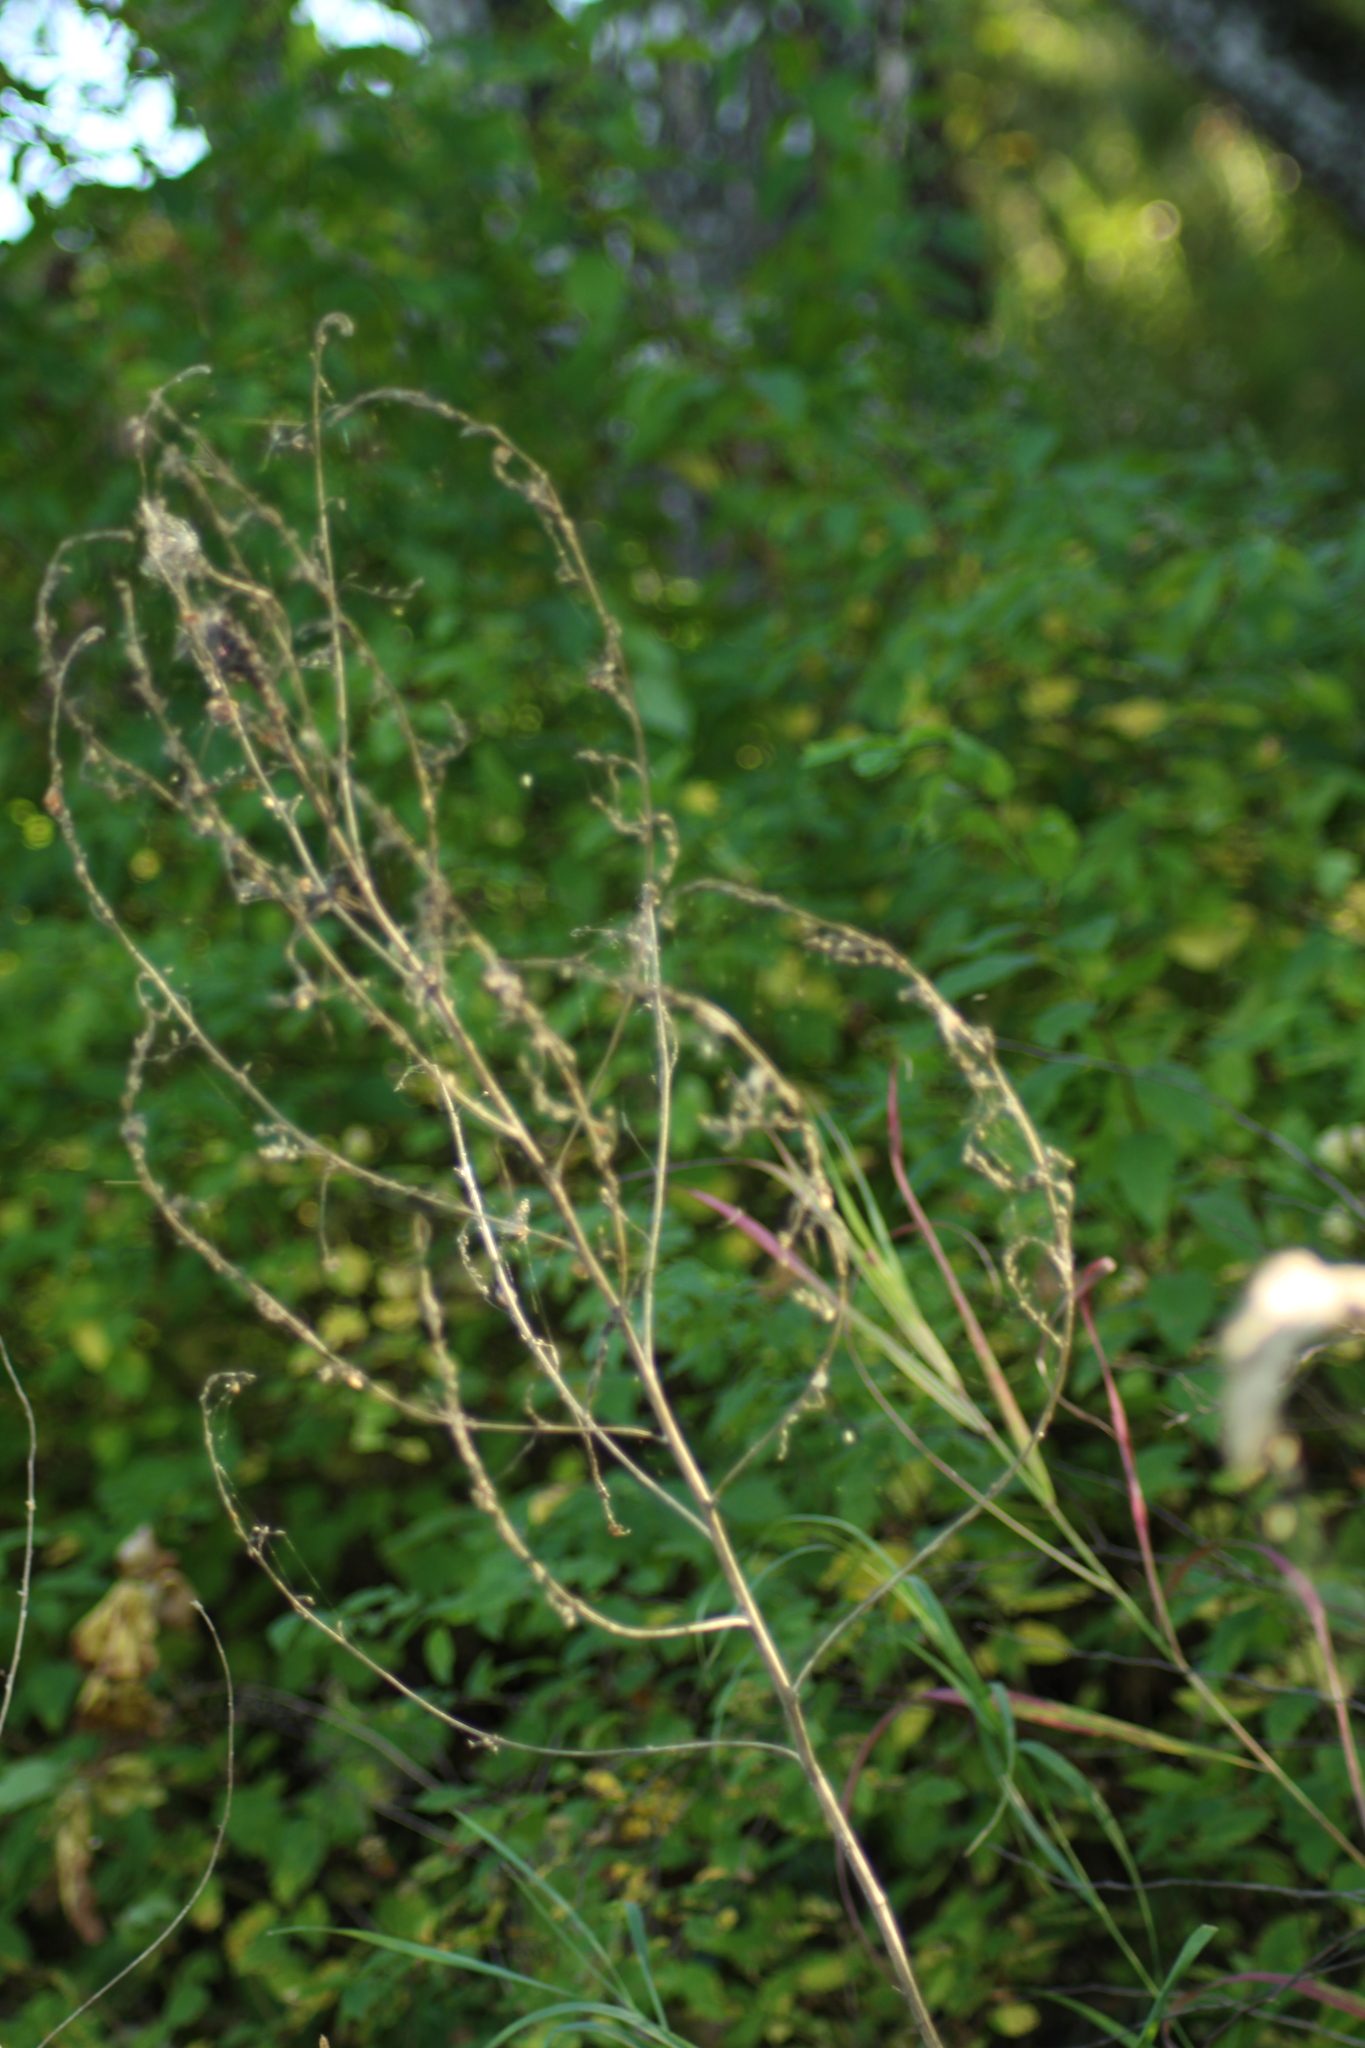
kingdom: Plantae
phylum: Tracheophyta
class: Magnoliopsida
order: Caryophyllales
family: Amaranthaceae
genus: Chenopodium
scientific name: Chenopodium album
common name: Fat-hen
